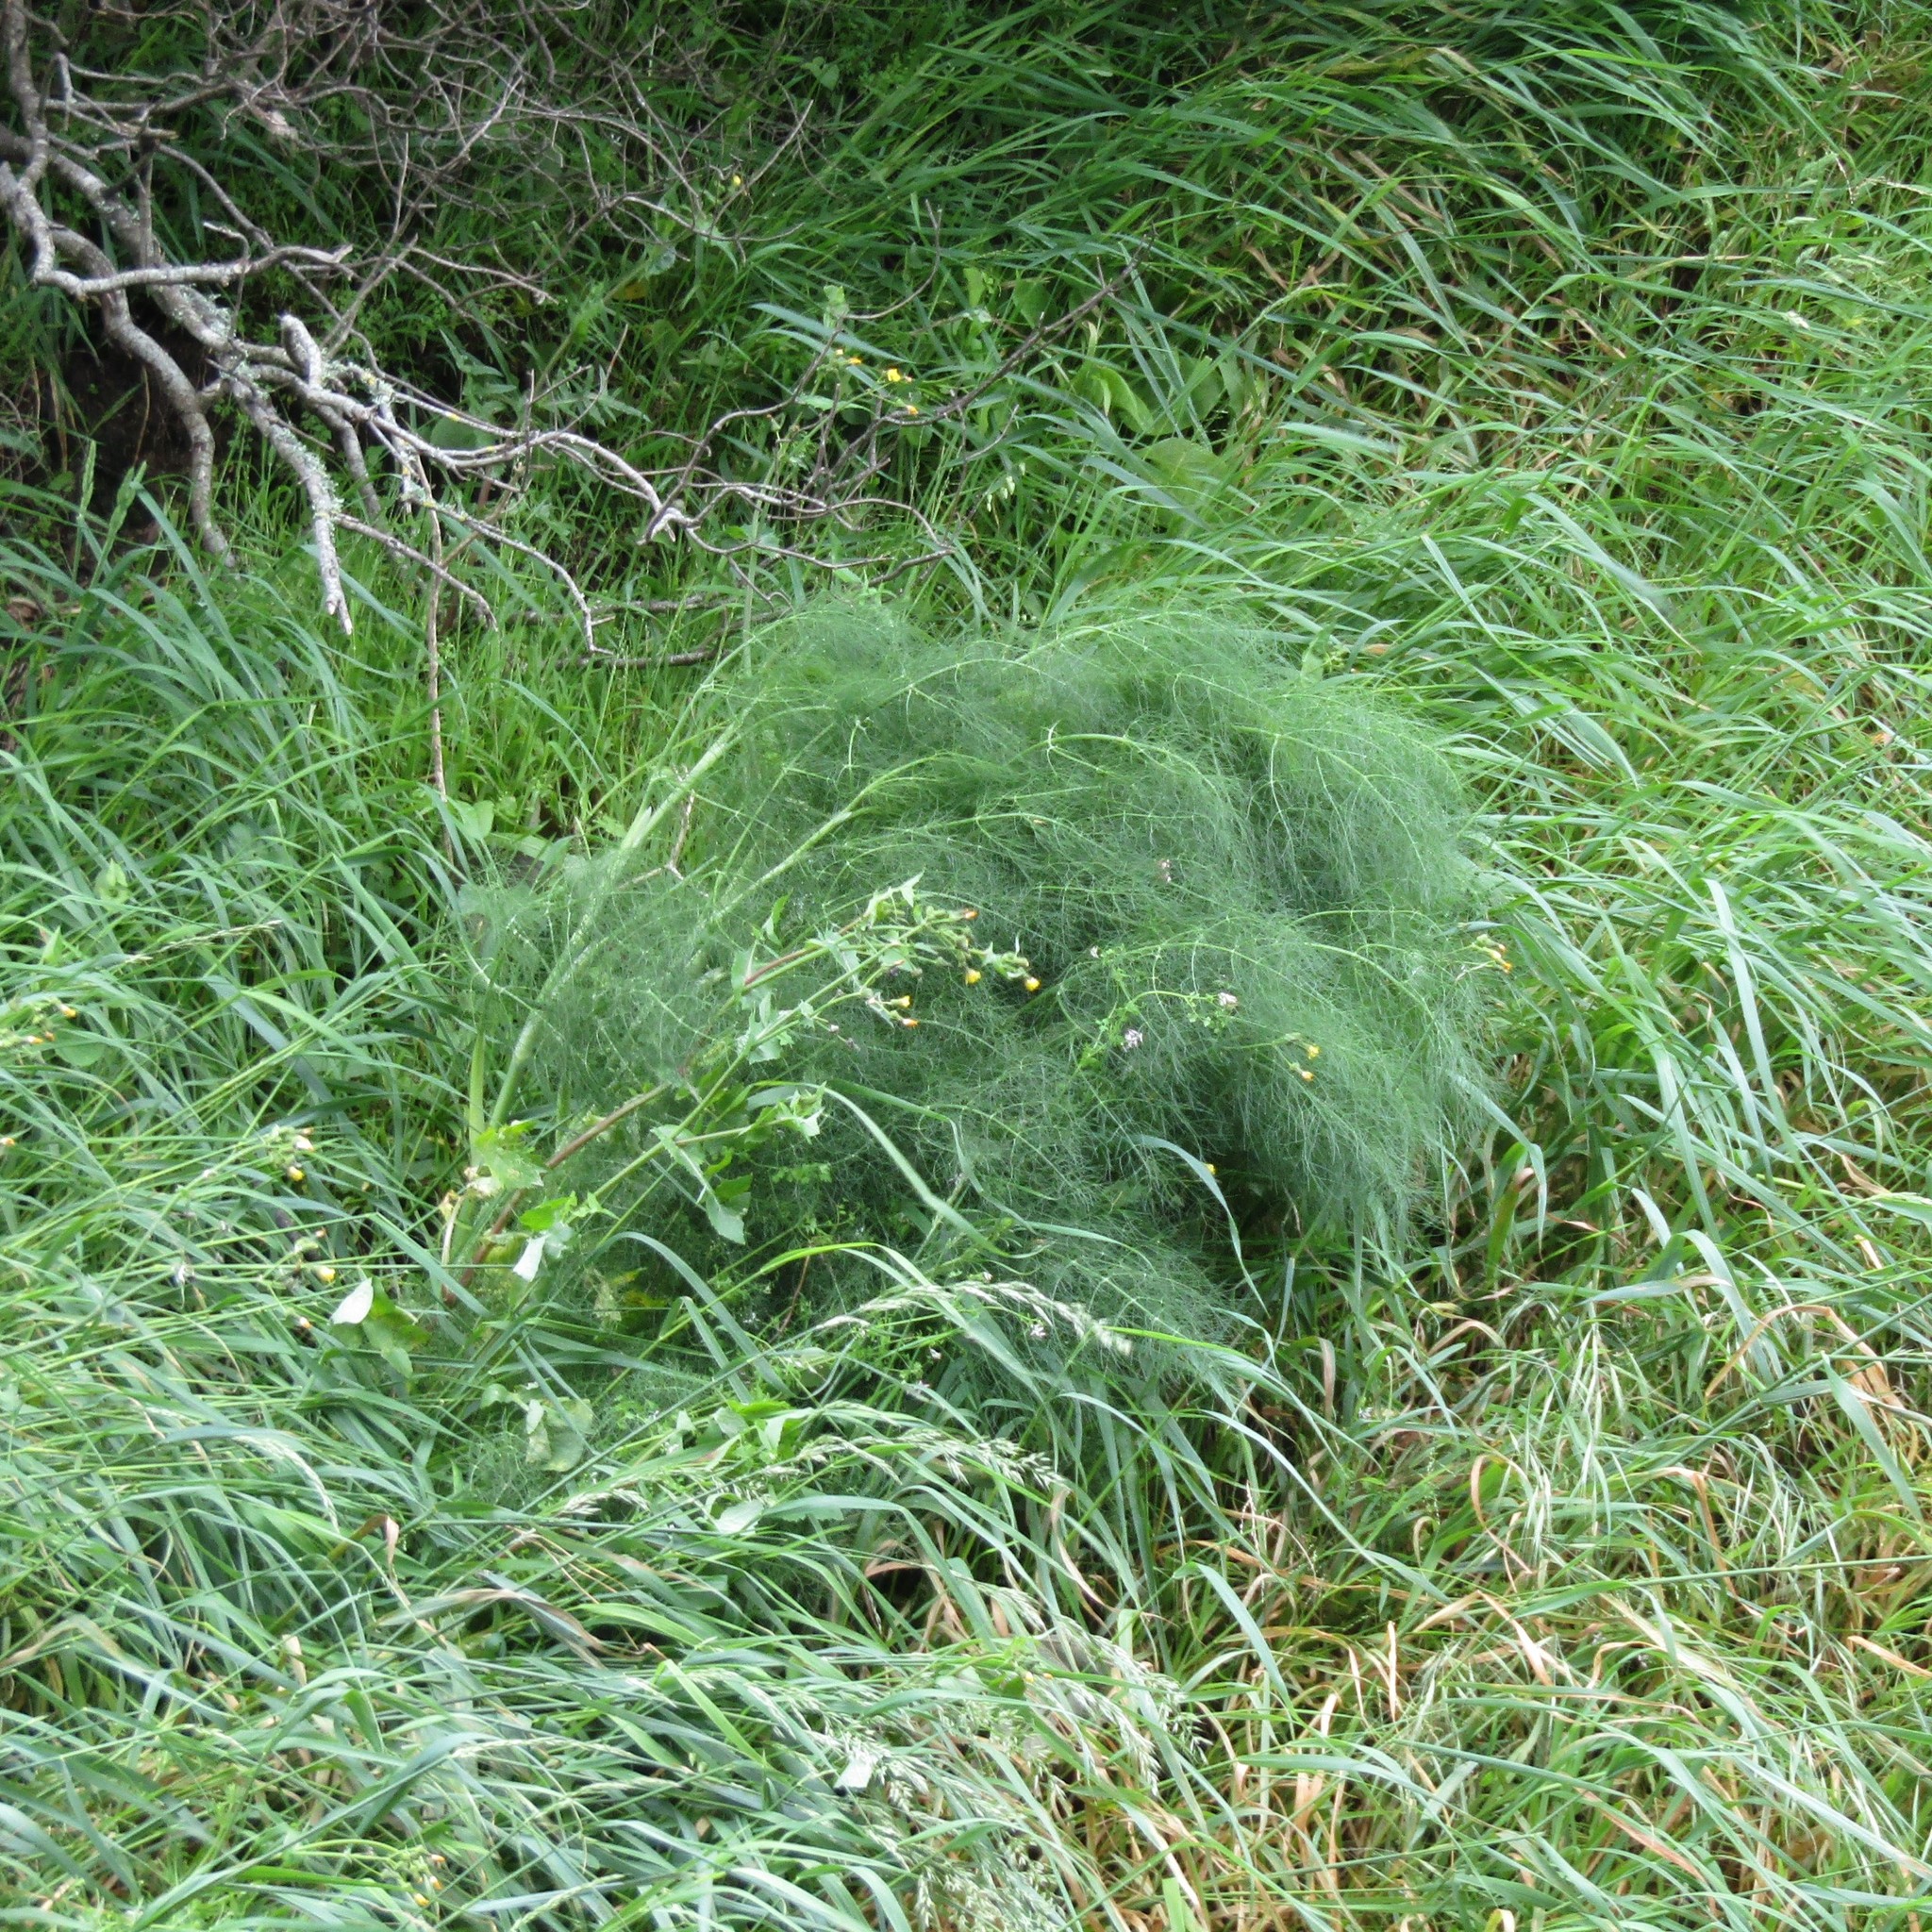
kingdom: Plantae
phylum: Tracheophyta
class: Magnoliopsida
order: Apiales
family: Apiaceae
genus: Foeniculum
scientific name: Foeniculum vulgare
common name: Fennel
